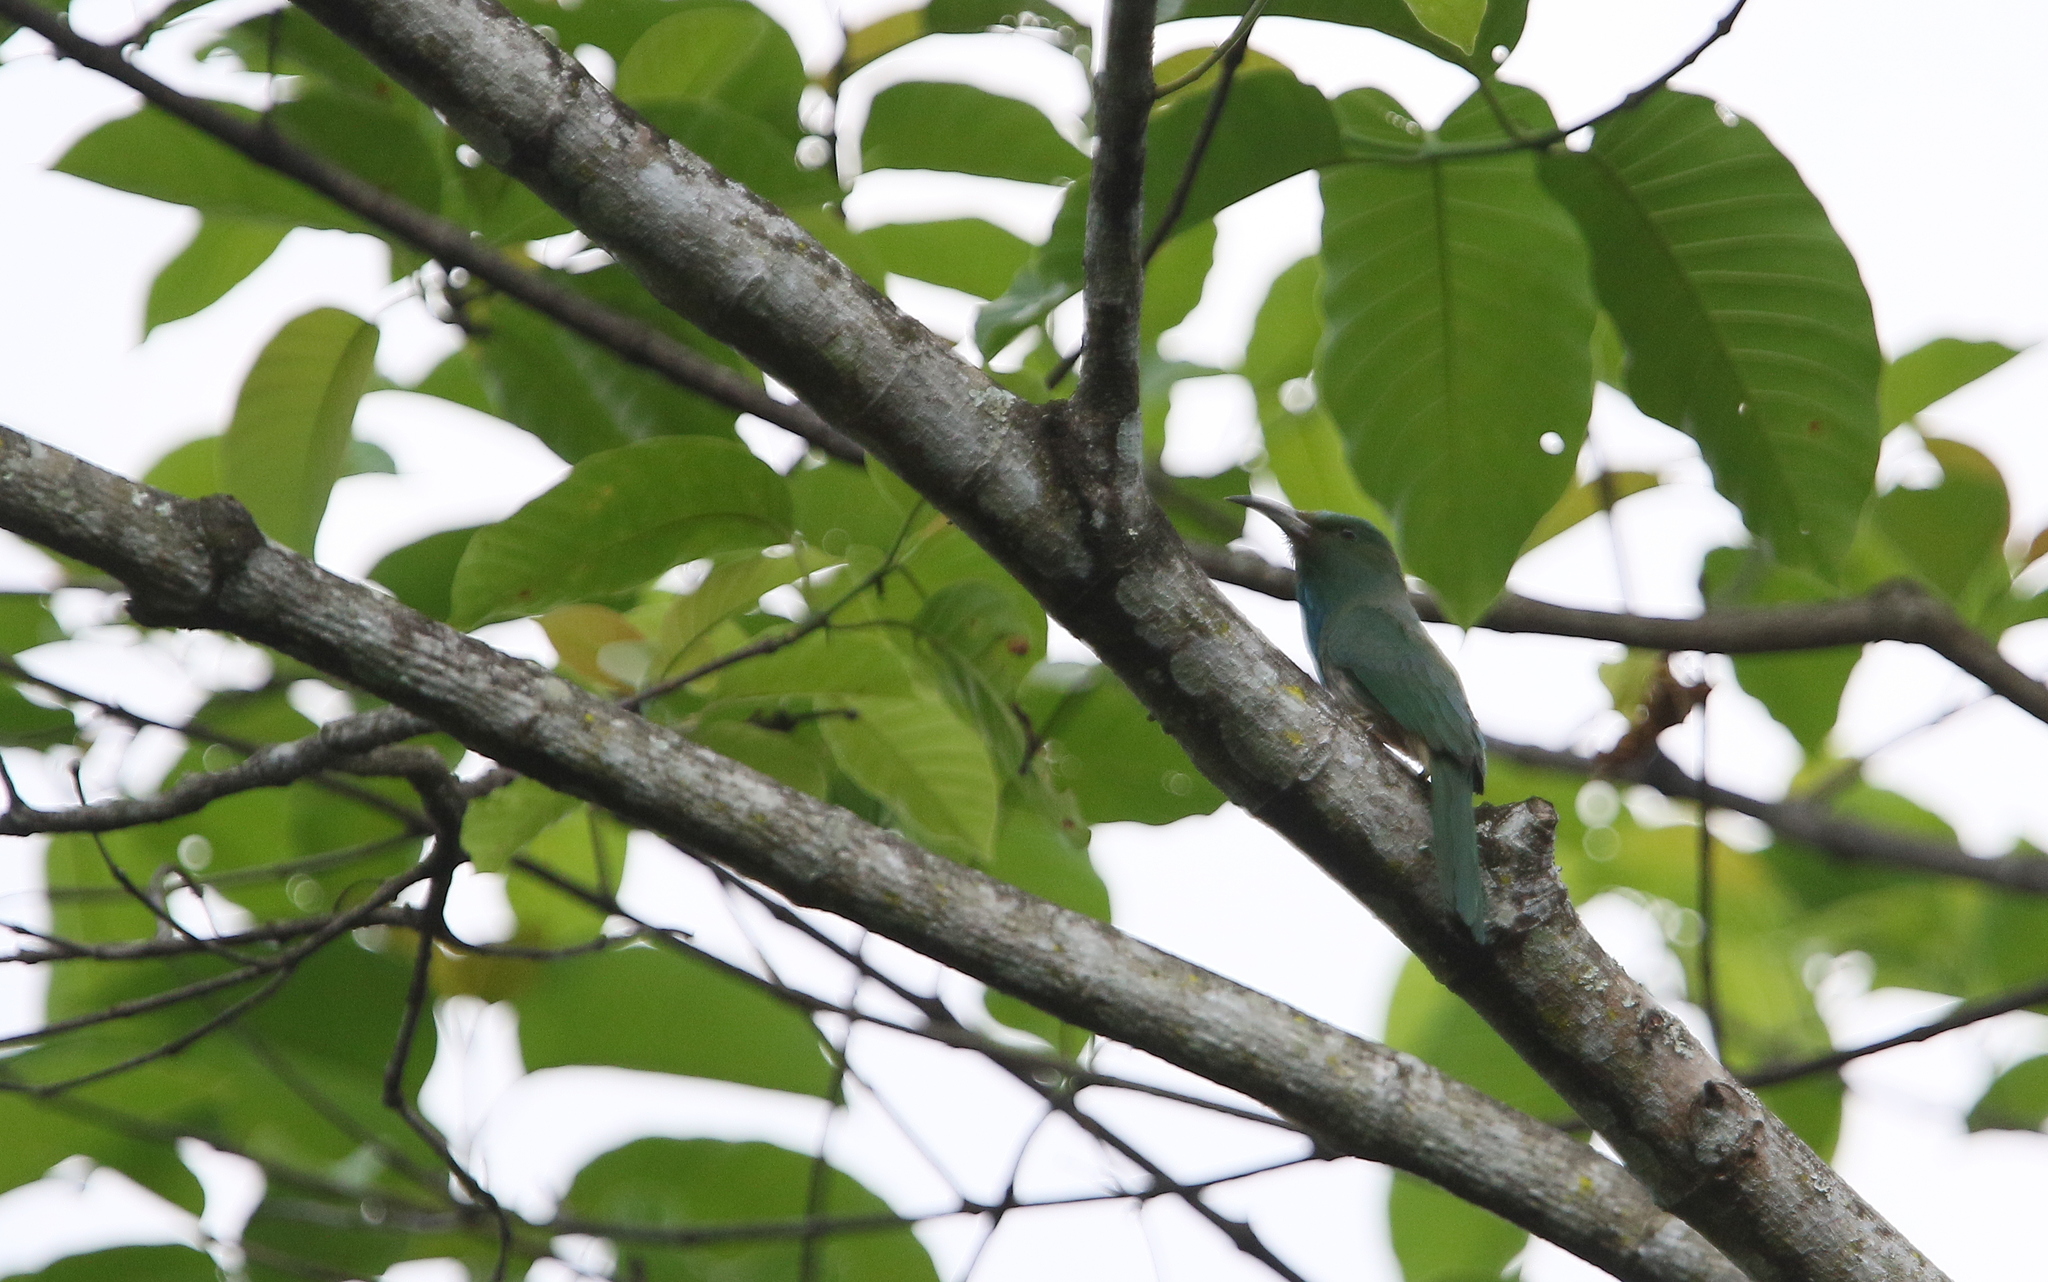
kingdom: Animalia
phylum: Chordata
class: Aves
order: Coraciiformes
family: Meropidae
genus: Nyctyornis
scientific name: Nyctyornis athertoni
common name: Blue-bearded bee-eater
